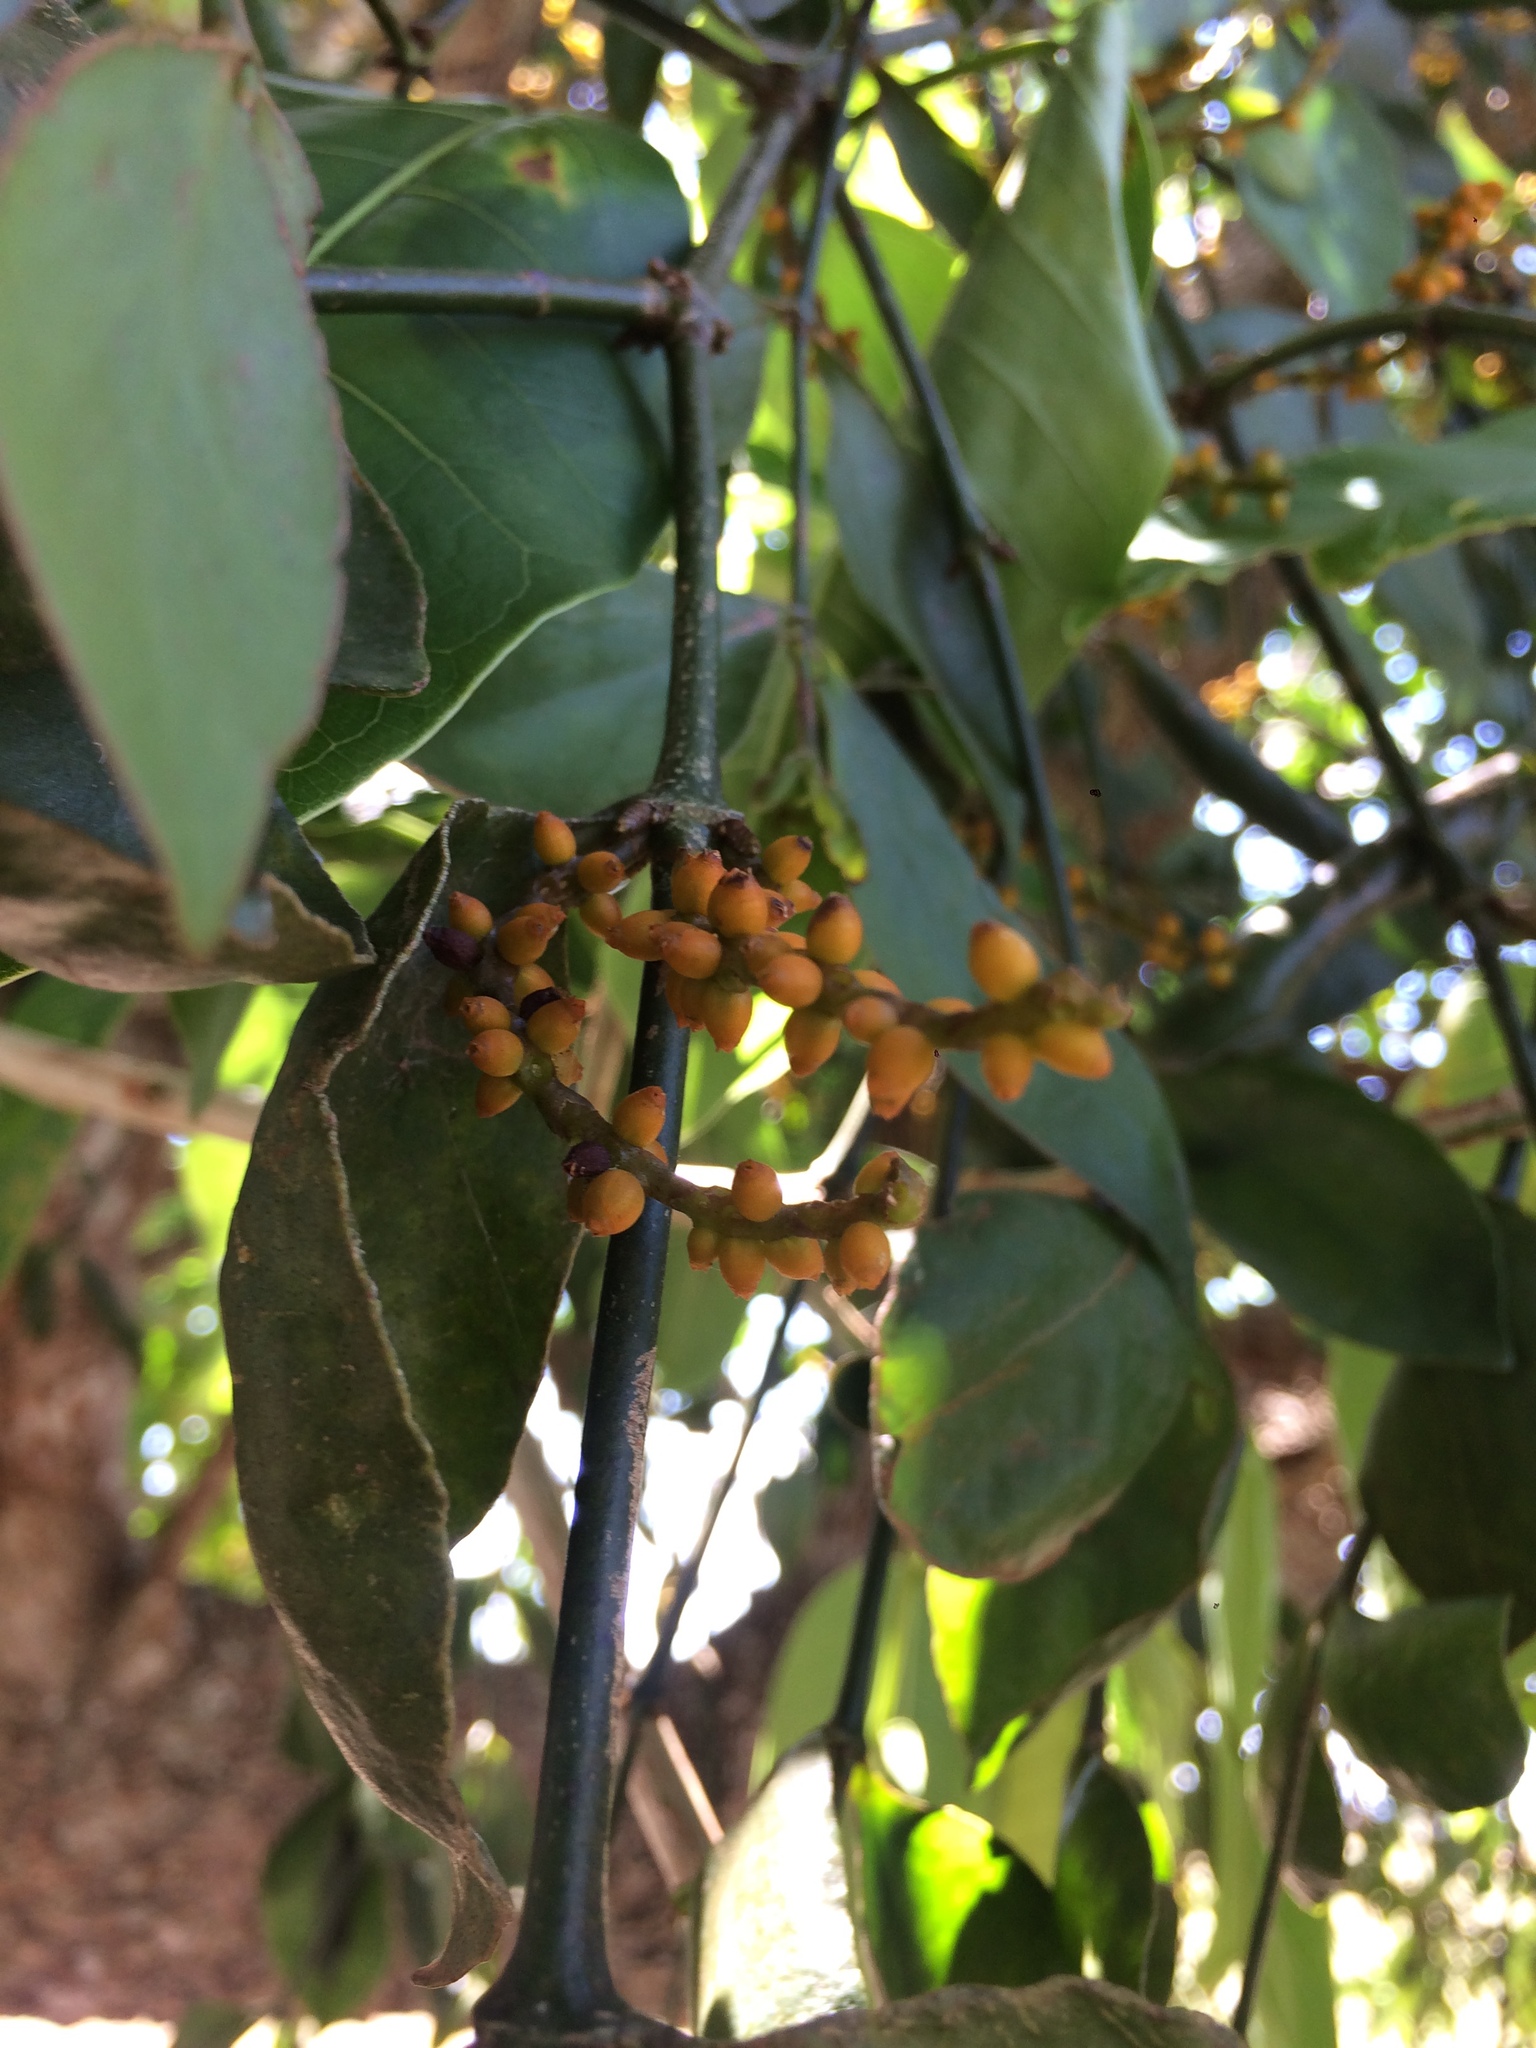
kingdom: Plantae
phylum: Tracheophyta
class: Magnoliopsida
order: Santalales
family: Viscaceae
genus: Phoradendron
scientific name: Phoradendron piperoides
